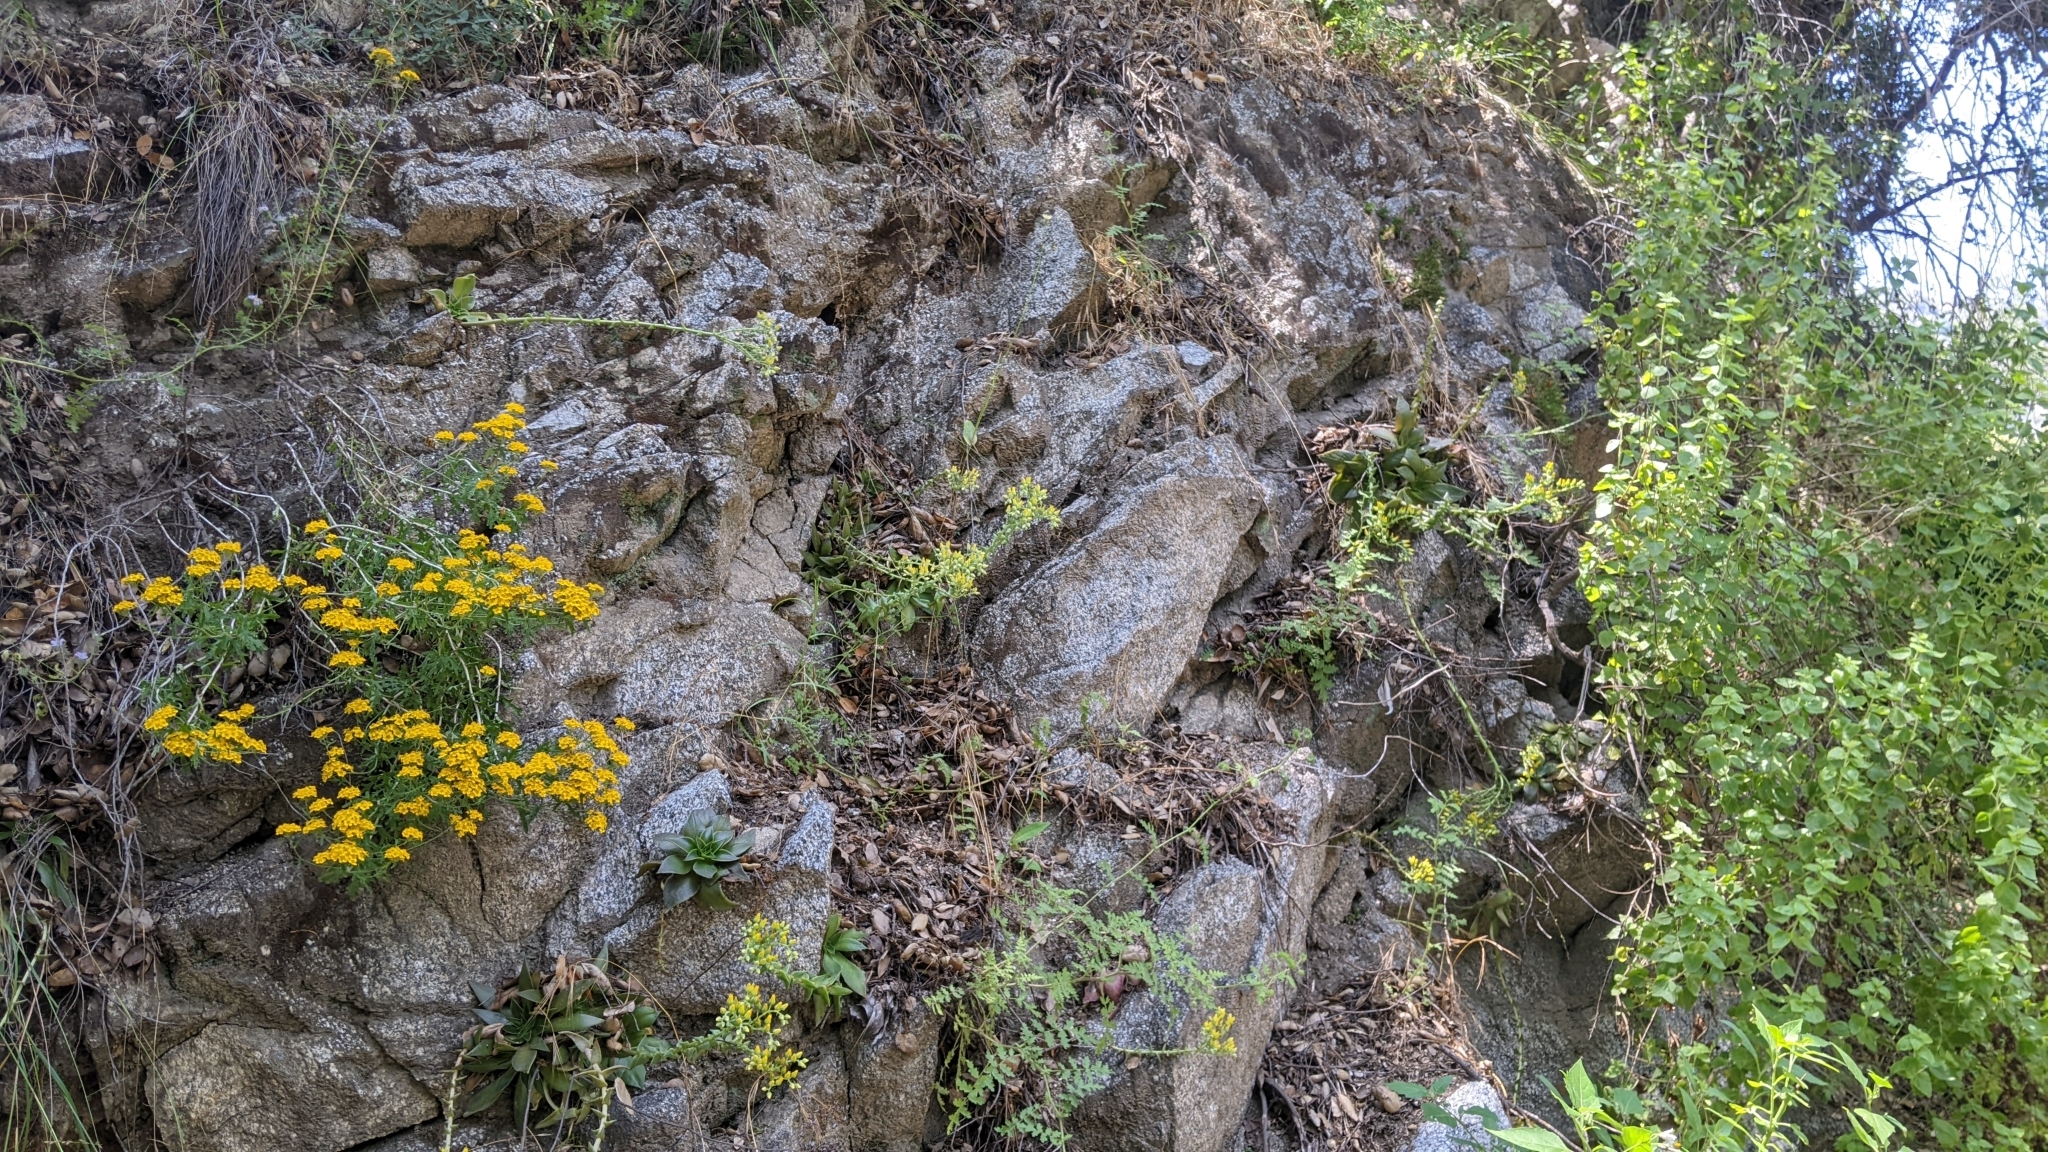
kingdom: Plantae
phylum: Tracheophyta
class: Magnoliopsida
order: Saxifragales
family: Crassulaceae
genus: Dudleya
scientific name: Dudleya lanceolata
